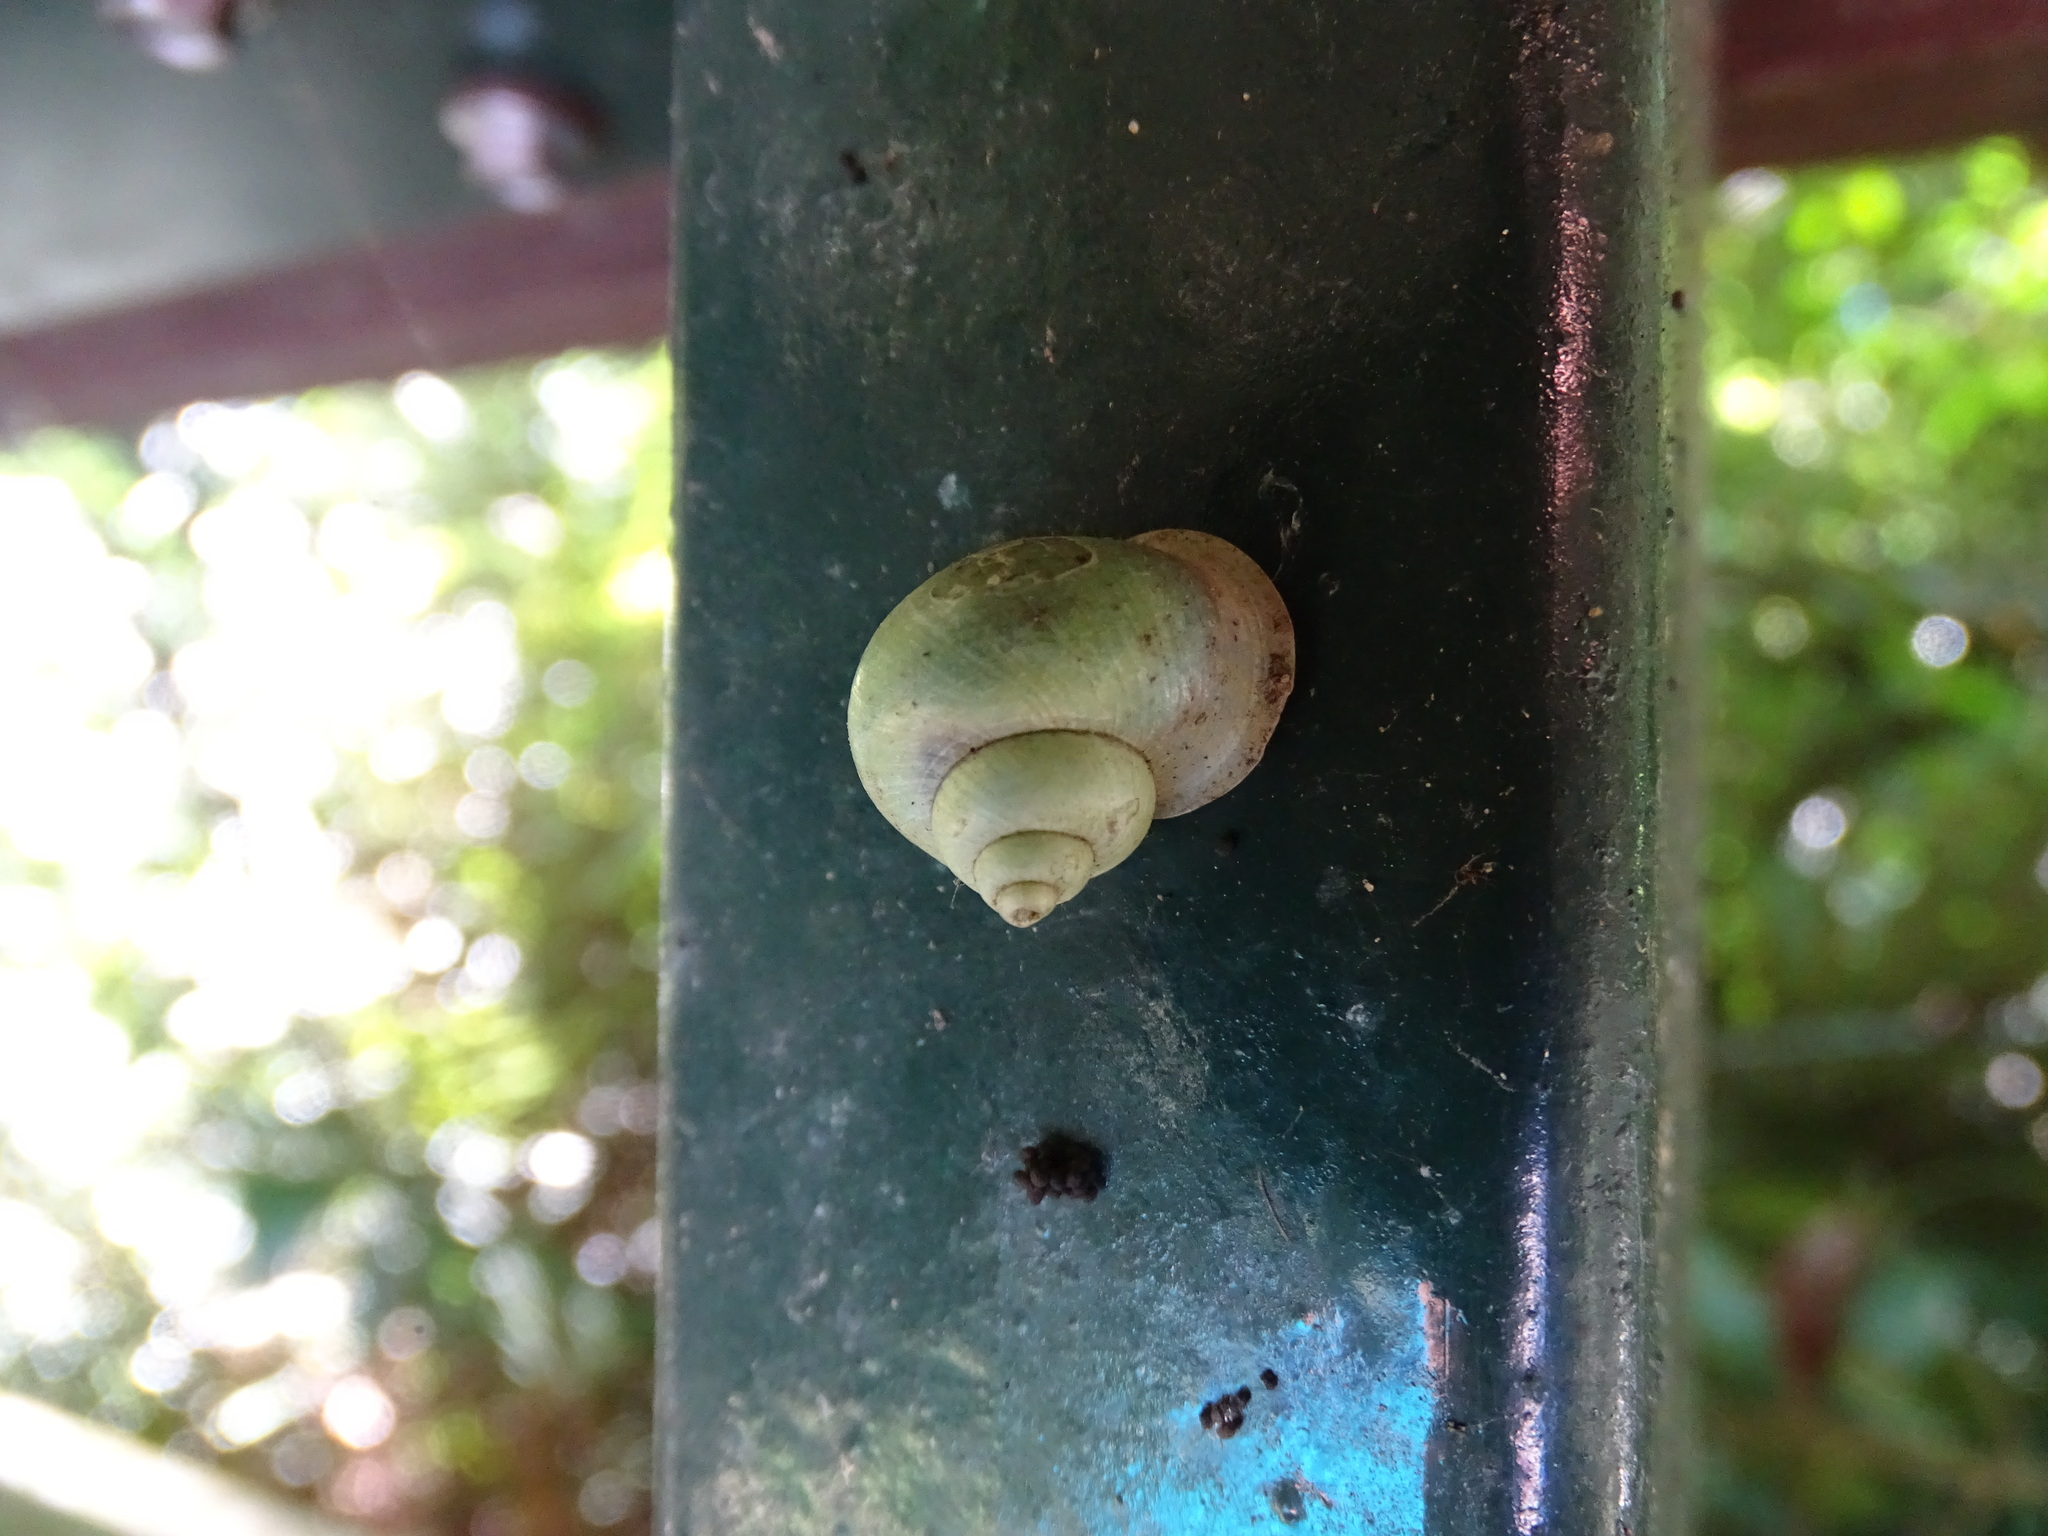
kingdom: Animalia
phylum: Mollusca
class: Gastropoda
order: Architaenioglossa
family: Cyclophoridae
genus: Leptopoma
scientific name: Leptopoma nitidum
